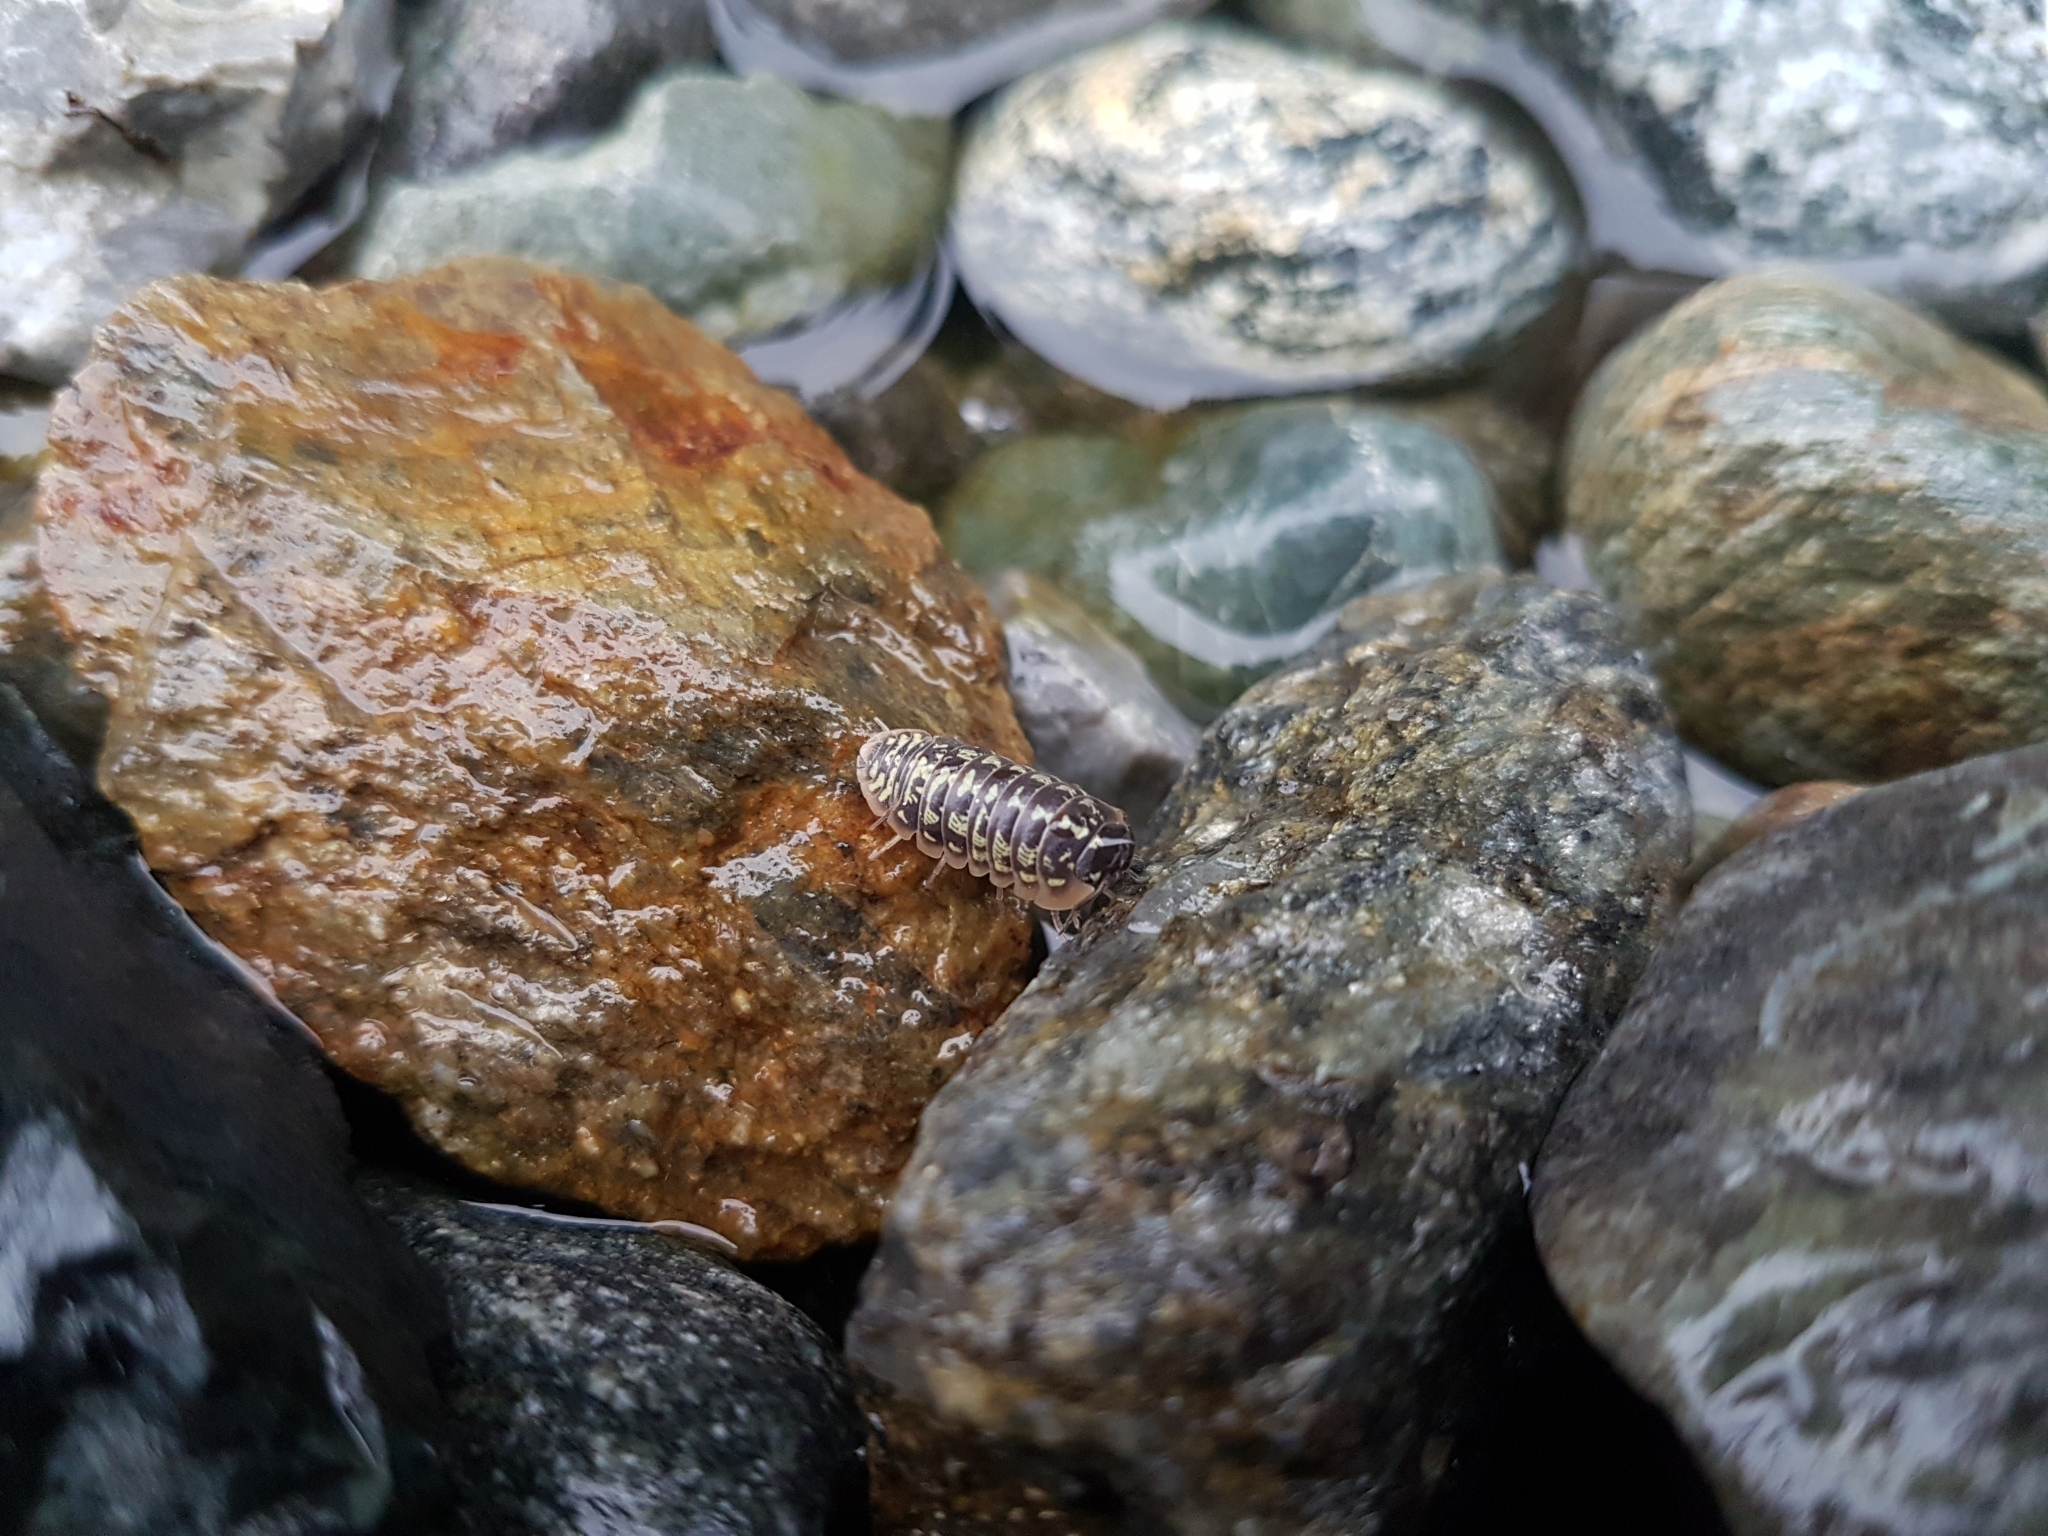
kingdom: Animalia
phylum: Arthropoda
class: Malacostraca
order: Isopoda
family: Armadillidiidae
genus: Armadillidium
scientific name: Armadillidium versicolor
